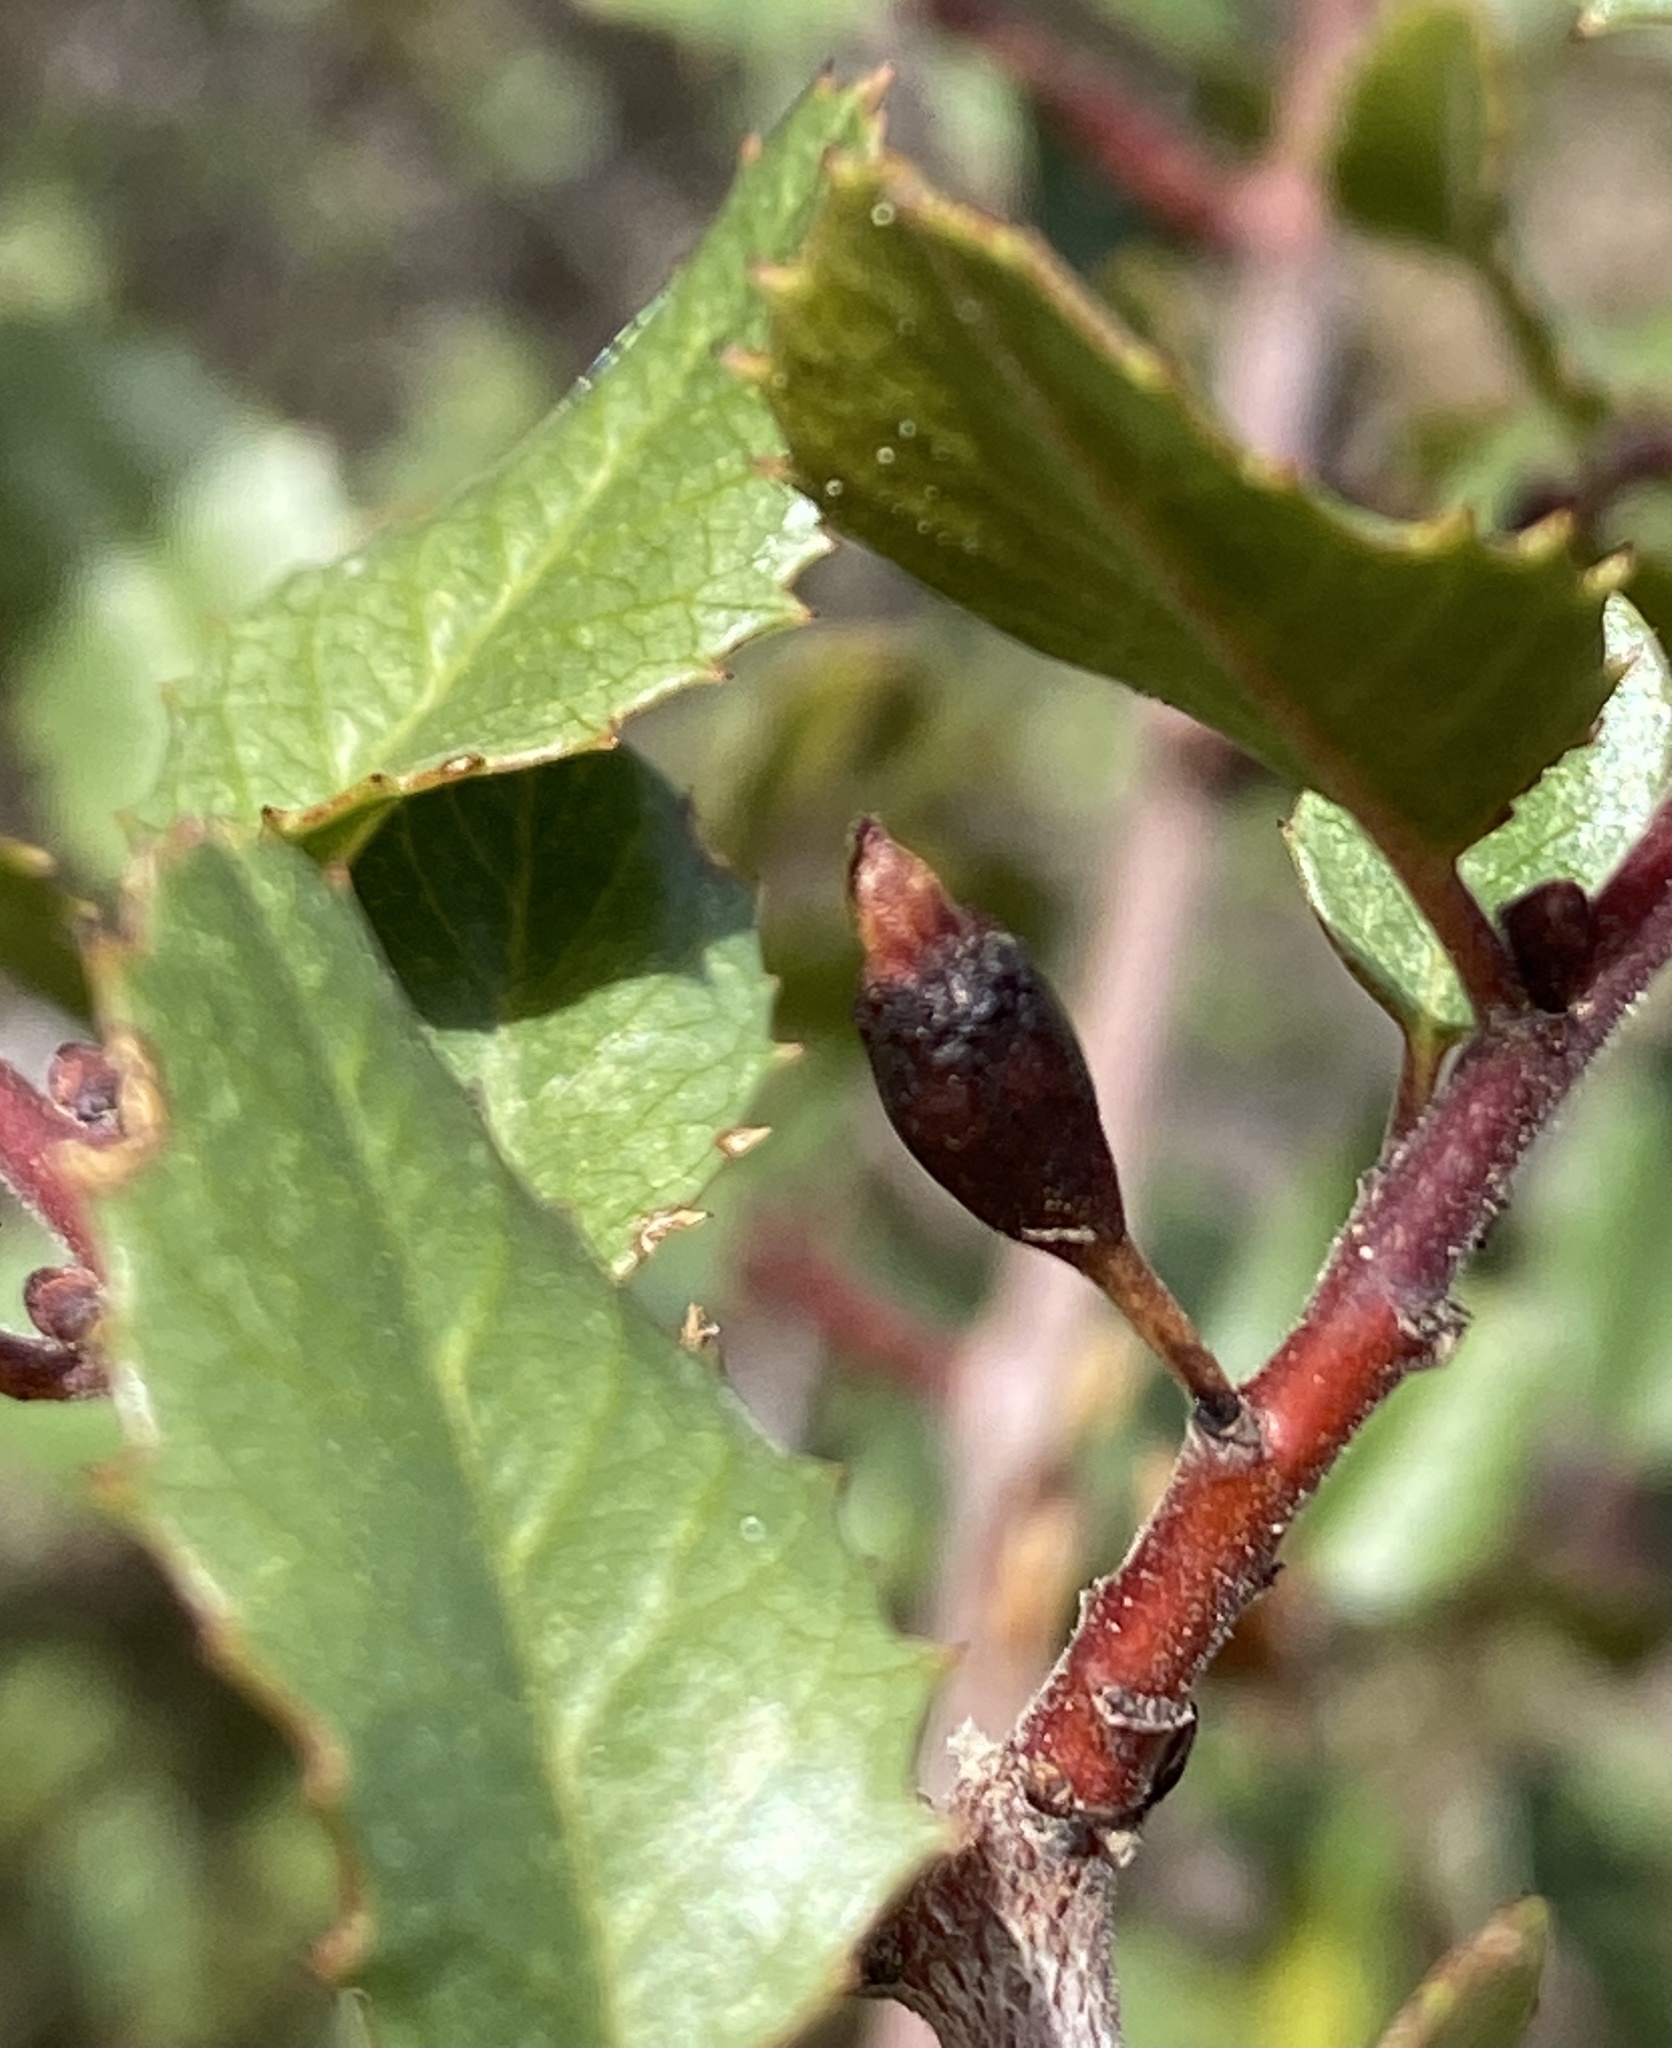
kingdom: Plantae
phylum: Tracheophyta
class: Magnoliopsida
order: Rosales
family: Rhamnaceae
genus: Endotropis
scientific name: Endotropis crocea
